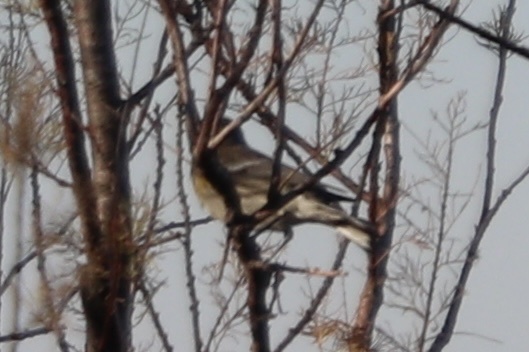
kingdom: Animalia
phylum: Chordata
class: Aves
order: Passeriformes
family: Parulidae
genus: Setophaga
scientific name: Setophaga coronata
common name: Myrtle warbler
